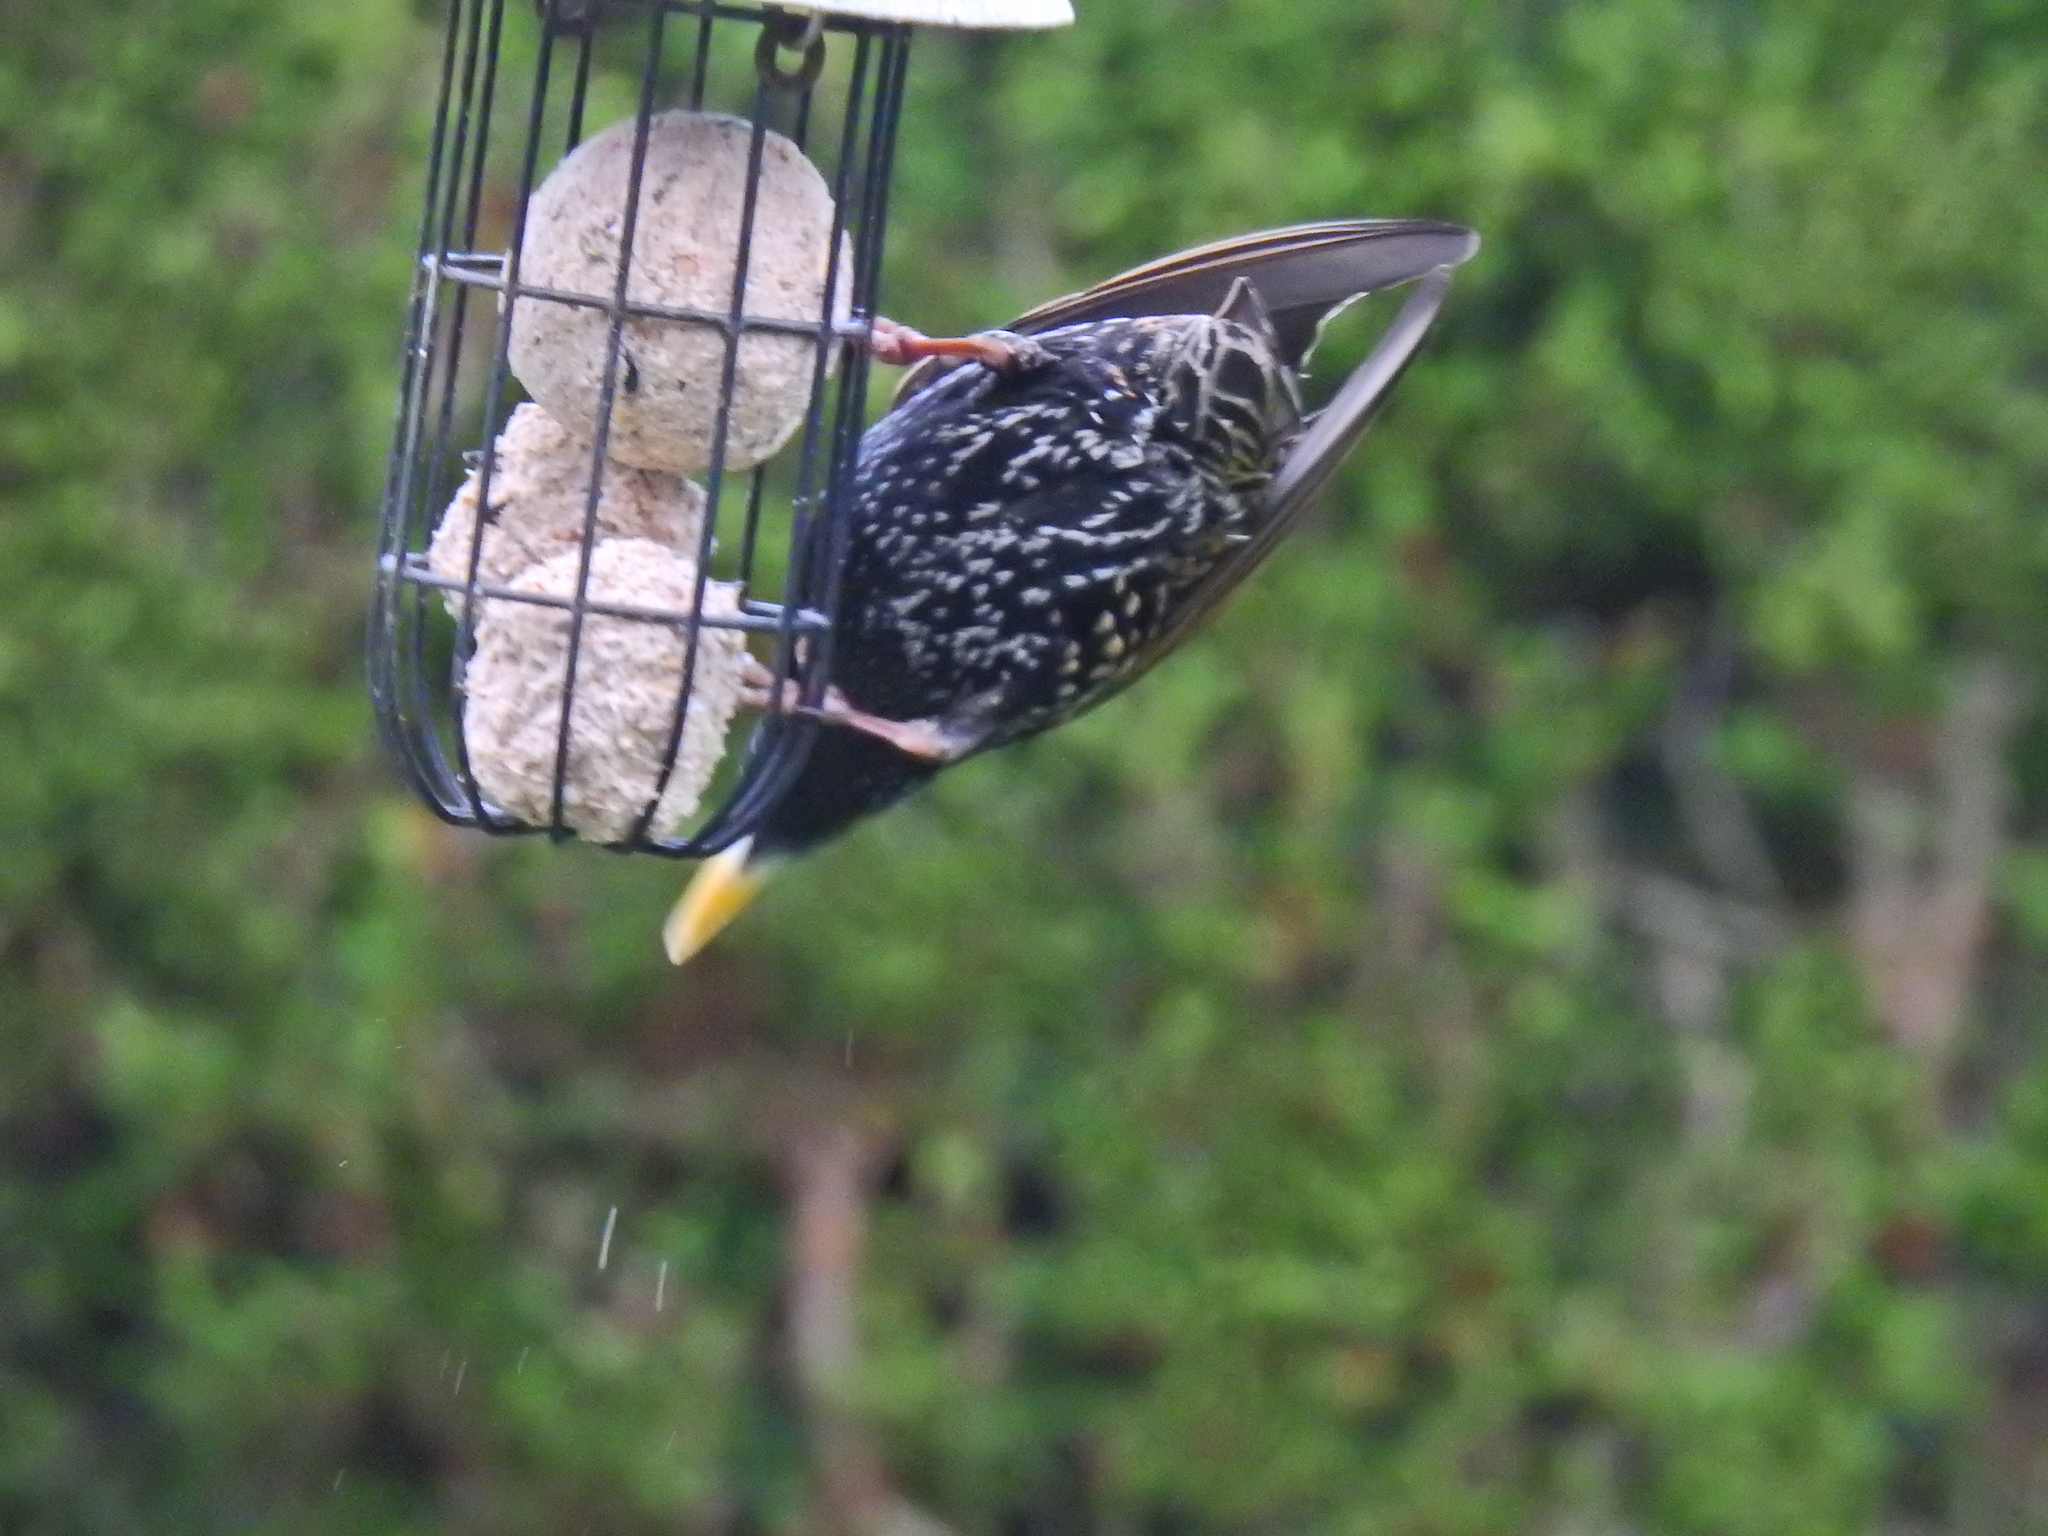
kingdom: Animalia
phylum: Chordata
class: Aves
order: Passeriformes
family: Sturnidae
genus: Sturnus
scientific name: Sturnus vulgaris
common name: Common starling
